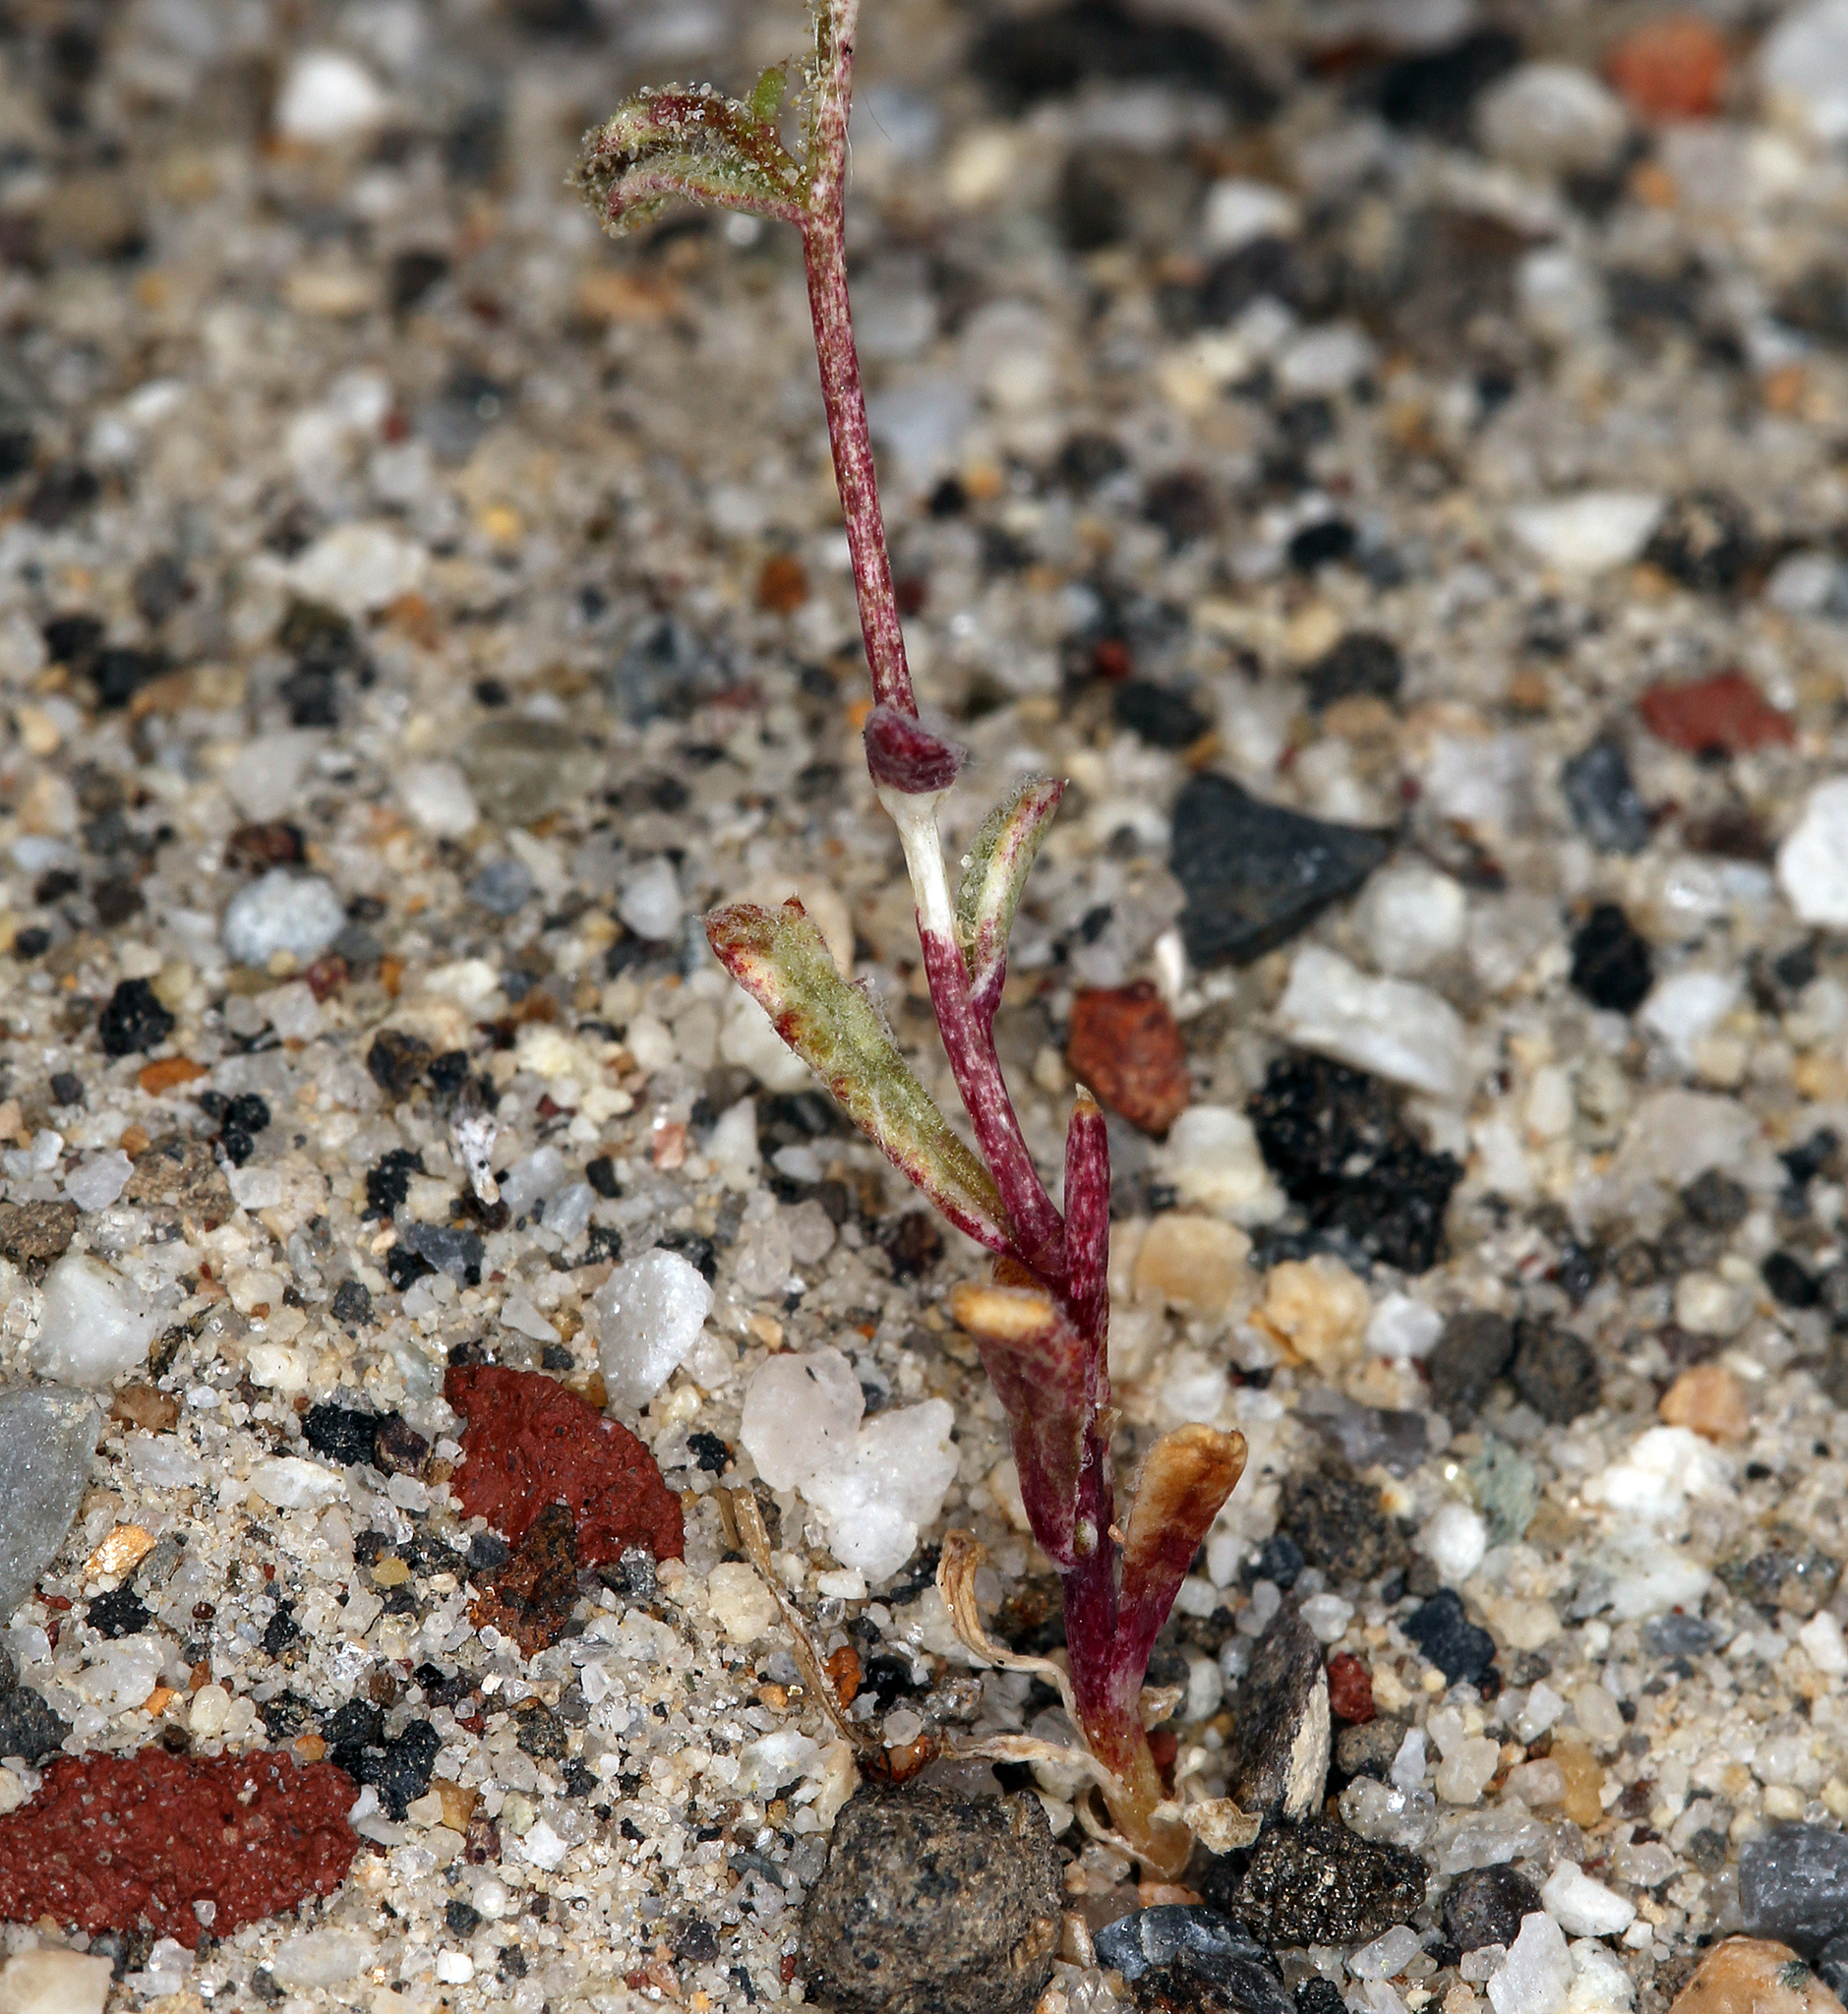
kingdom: Plantae
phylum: Tracheophyta
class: Magnoliopsida
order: Ericales
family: Polemoniaceae
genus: Gilia
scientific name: Gilia sinuata
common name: Rosy gilia
